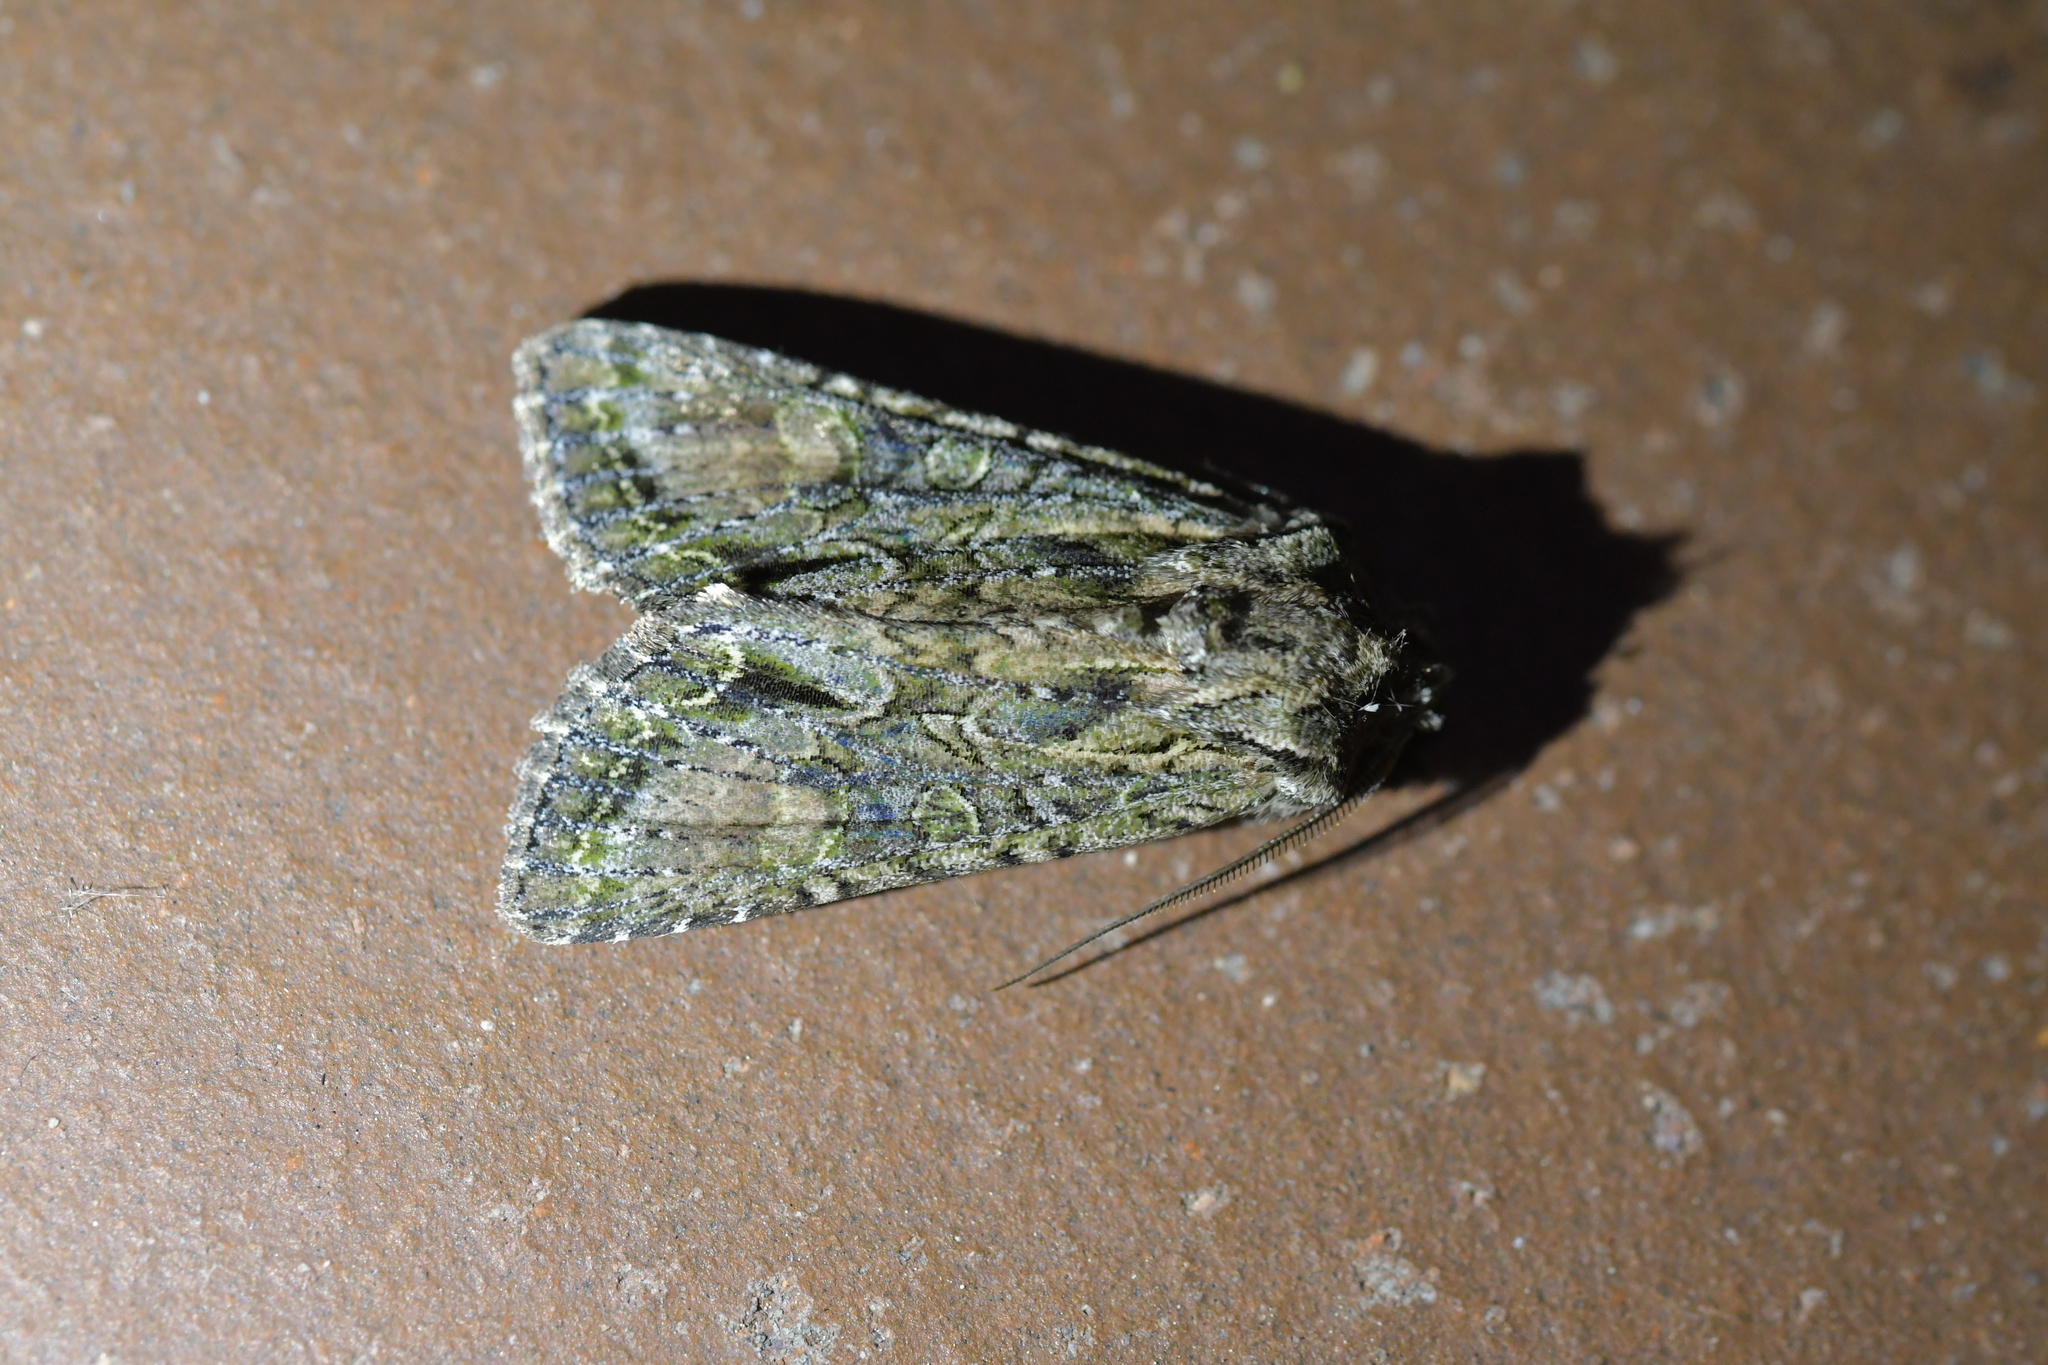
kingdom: Animalia
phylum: Arthropoda
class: Insecta
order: Lepidoptera
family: Noctuidae
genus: Ichneutica
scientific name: Ichneutica mutans
